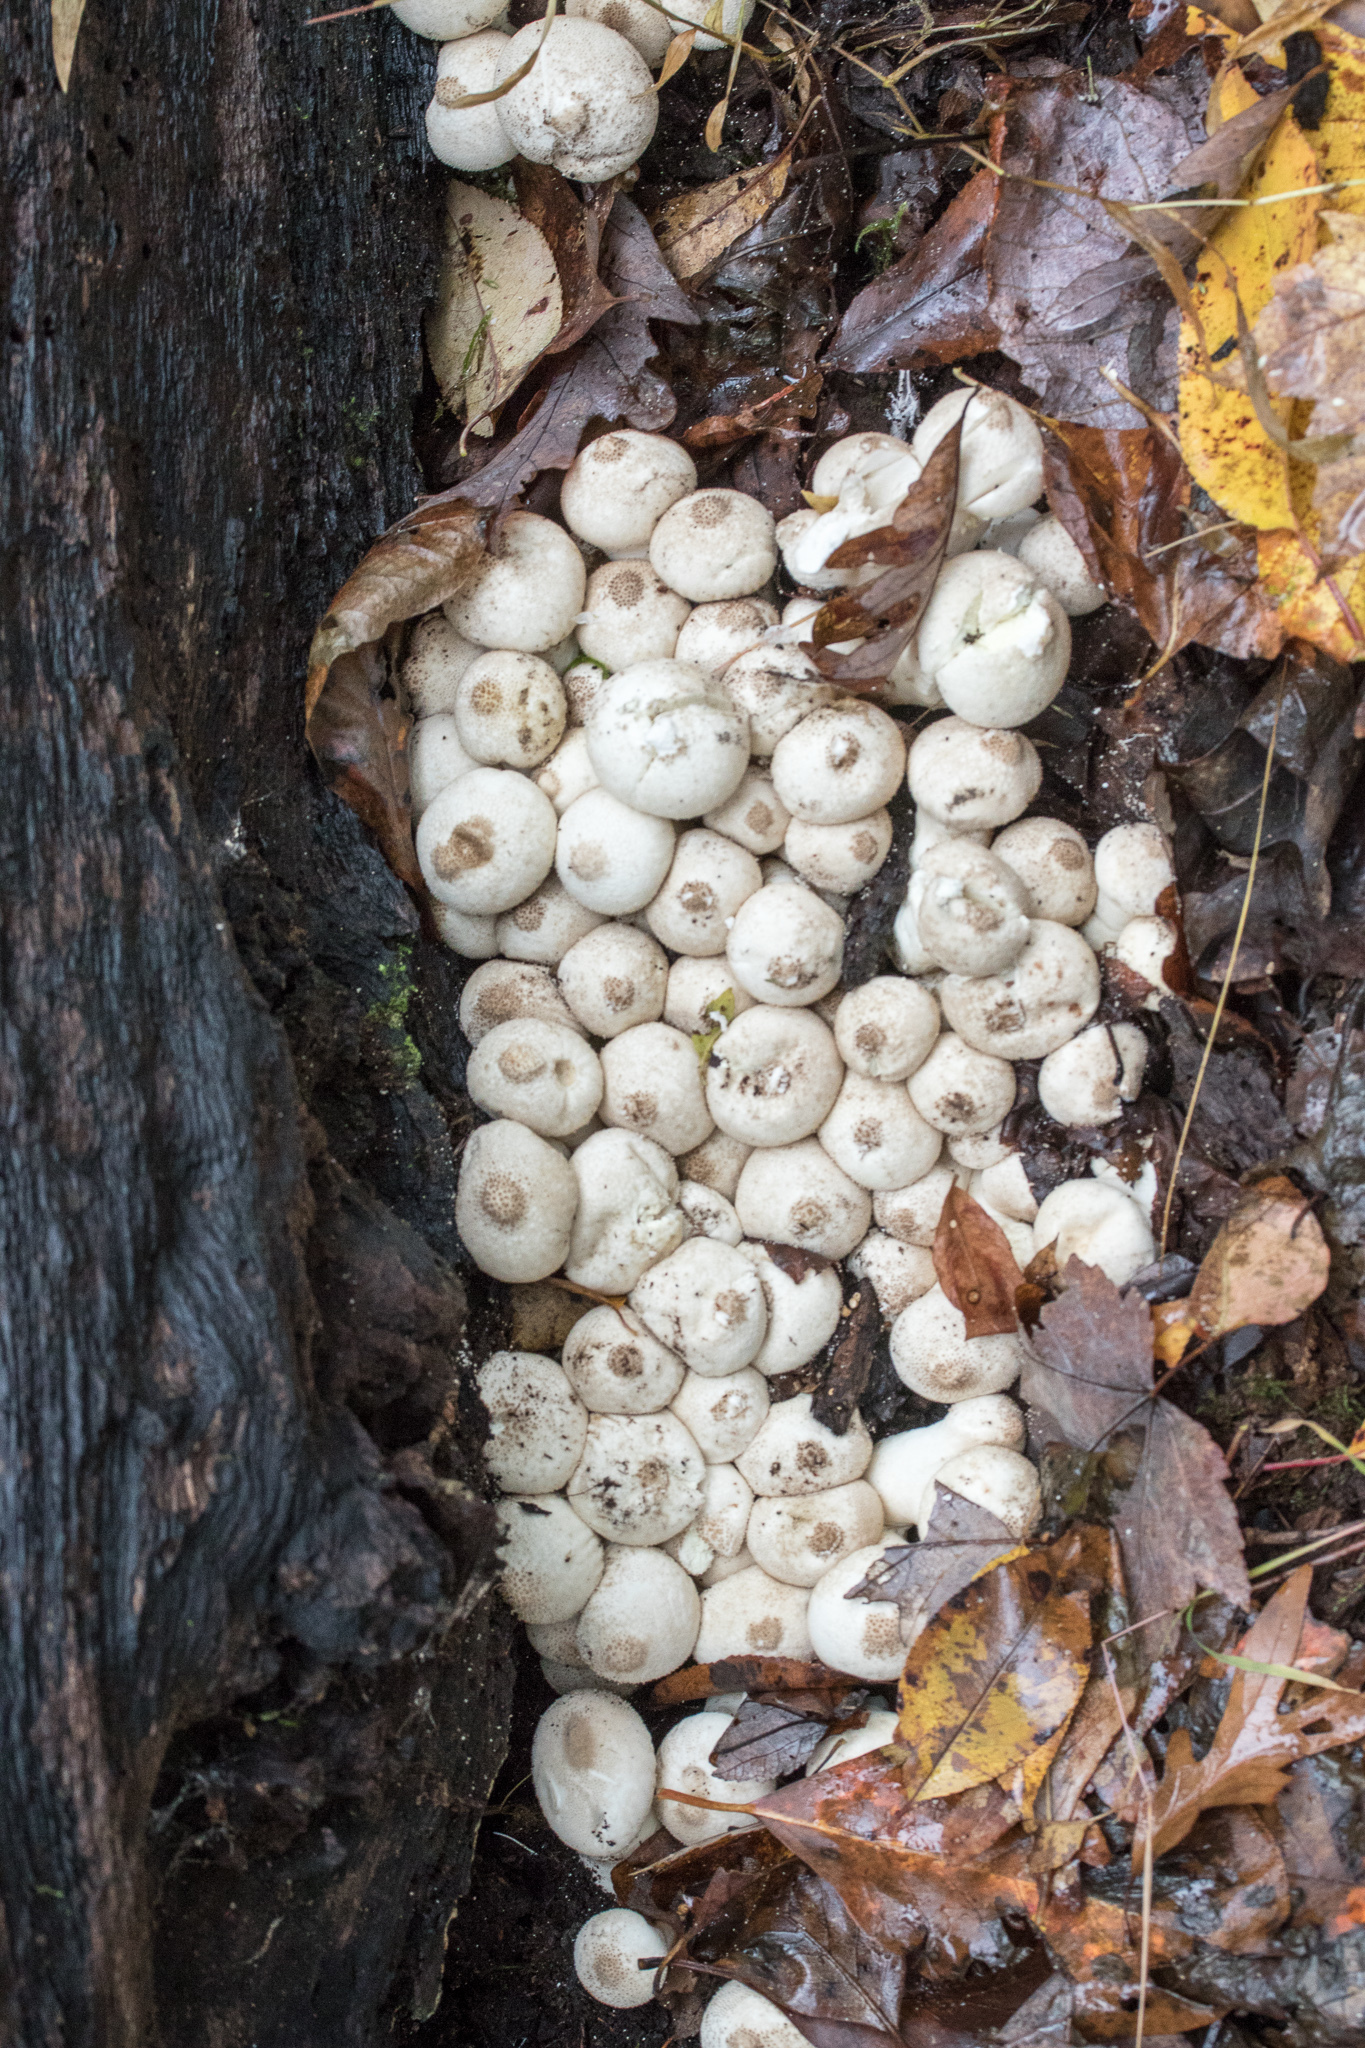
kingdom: Fungi
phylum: Basidiomycota
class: Agaricomycetes
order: Agaricales
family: Lycoperdaceae
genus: Lycoperdon
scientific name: Lycoperdon perlatum
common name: Common puffball
